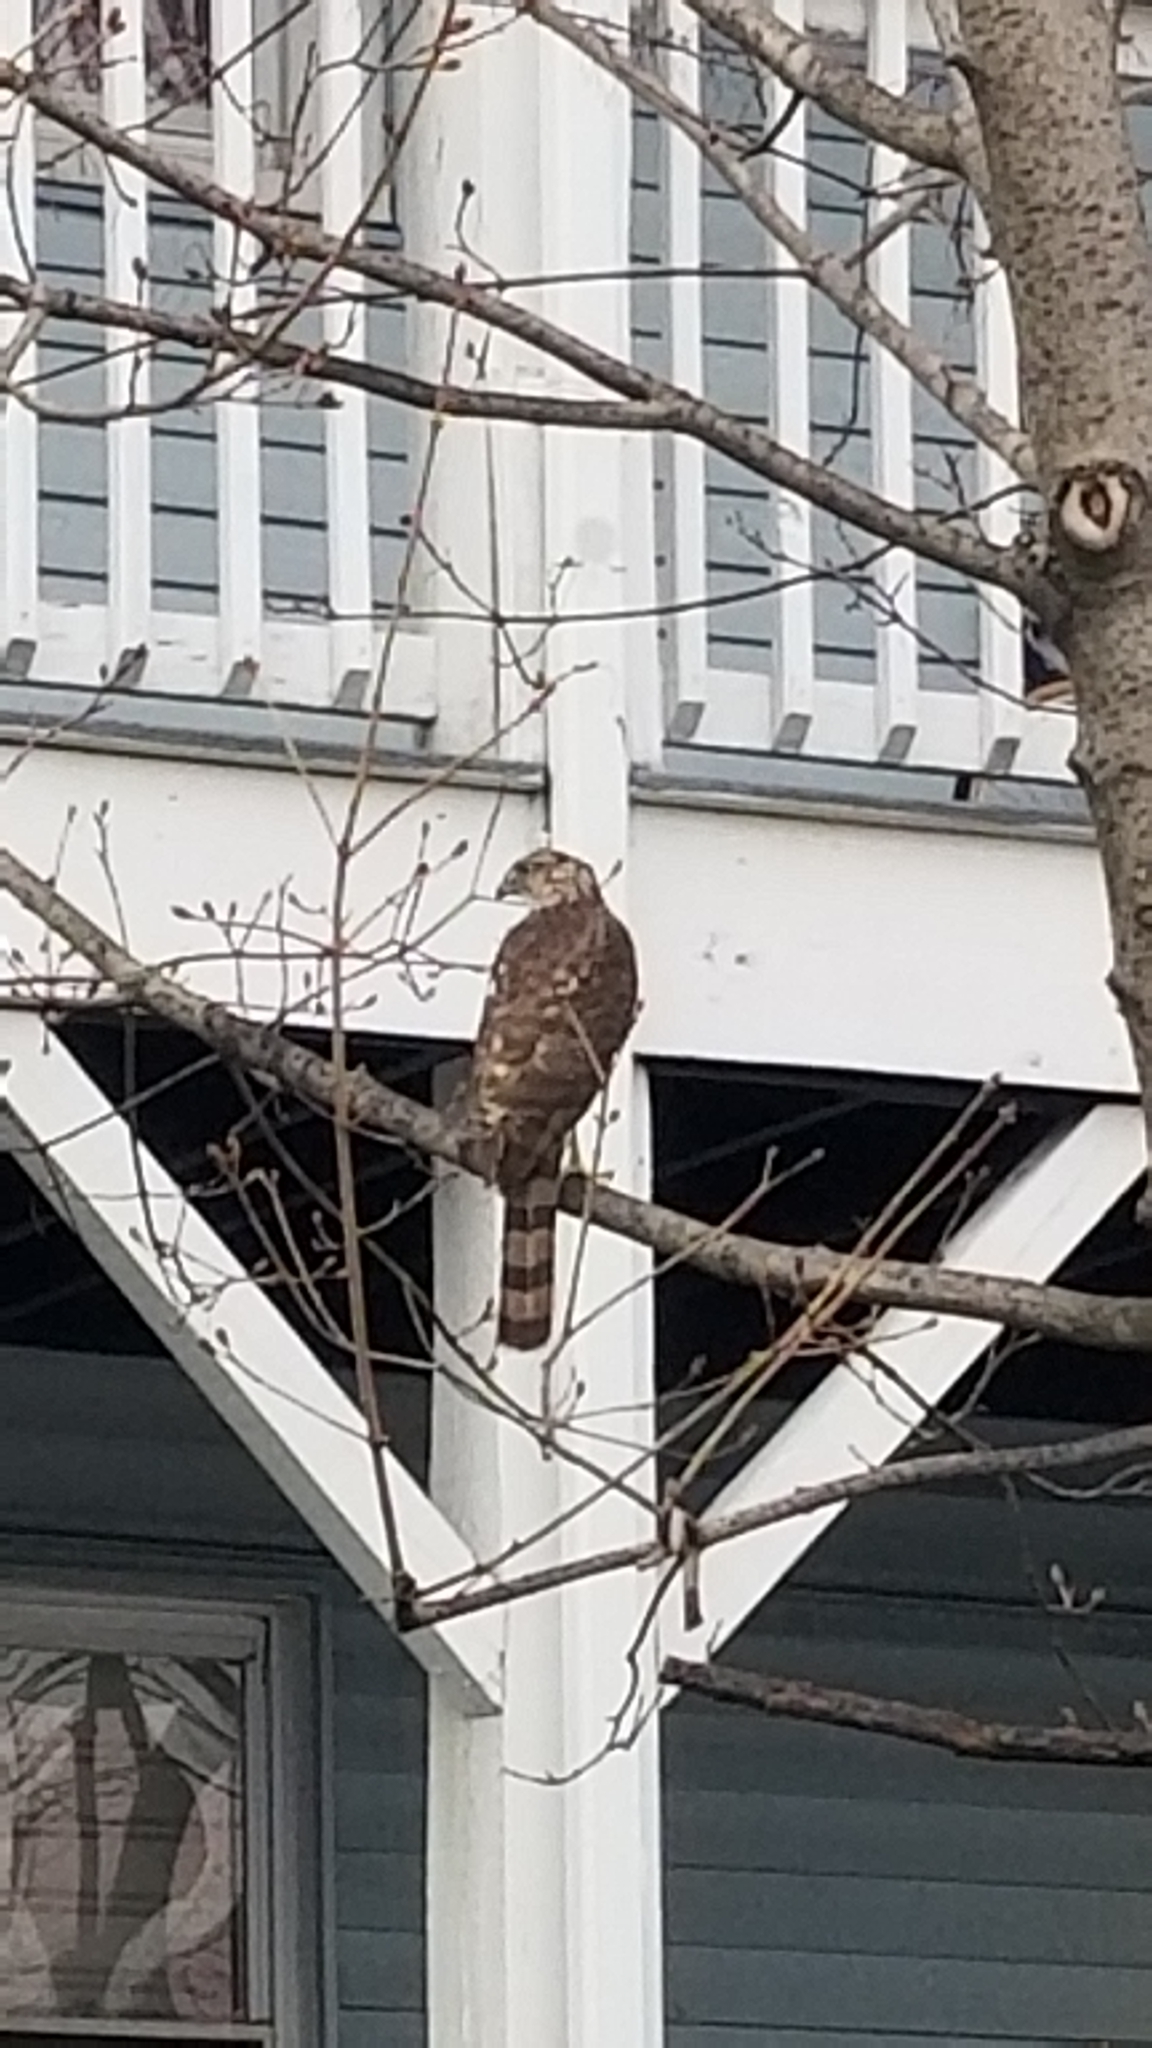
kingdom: Animalia
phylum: Chordata
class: Aves
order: Accipitriformes
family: Accipitridae
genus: Accipiter
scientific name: Accipiter cooperii
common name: Cooper's hawk
